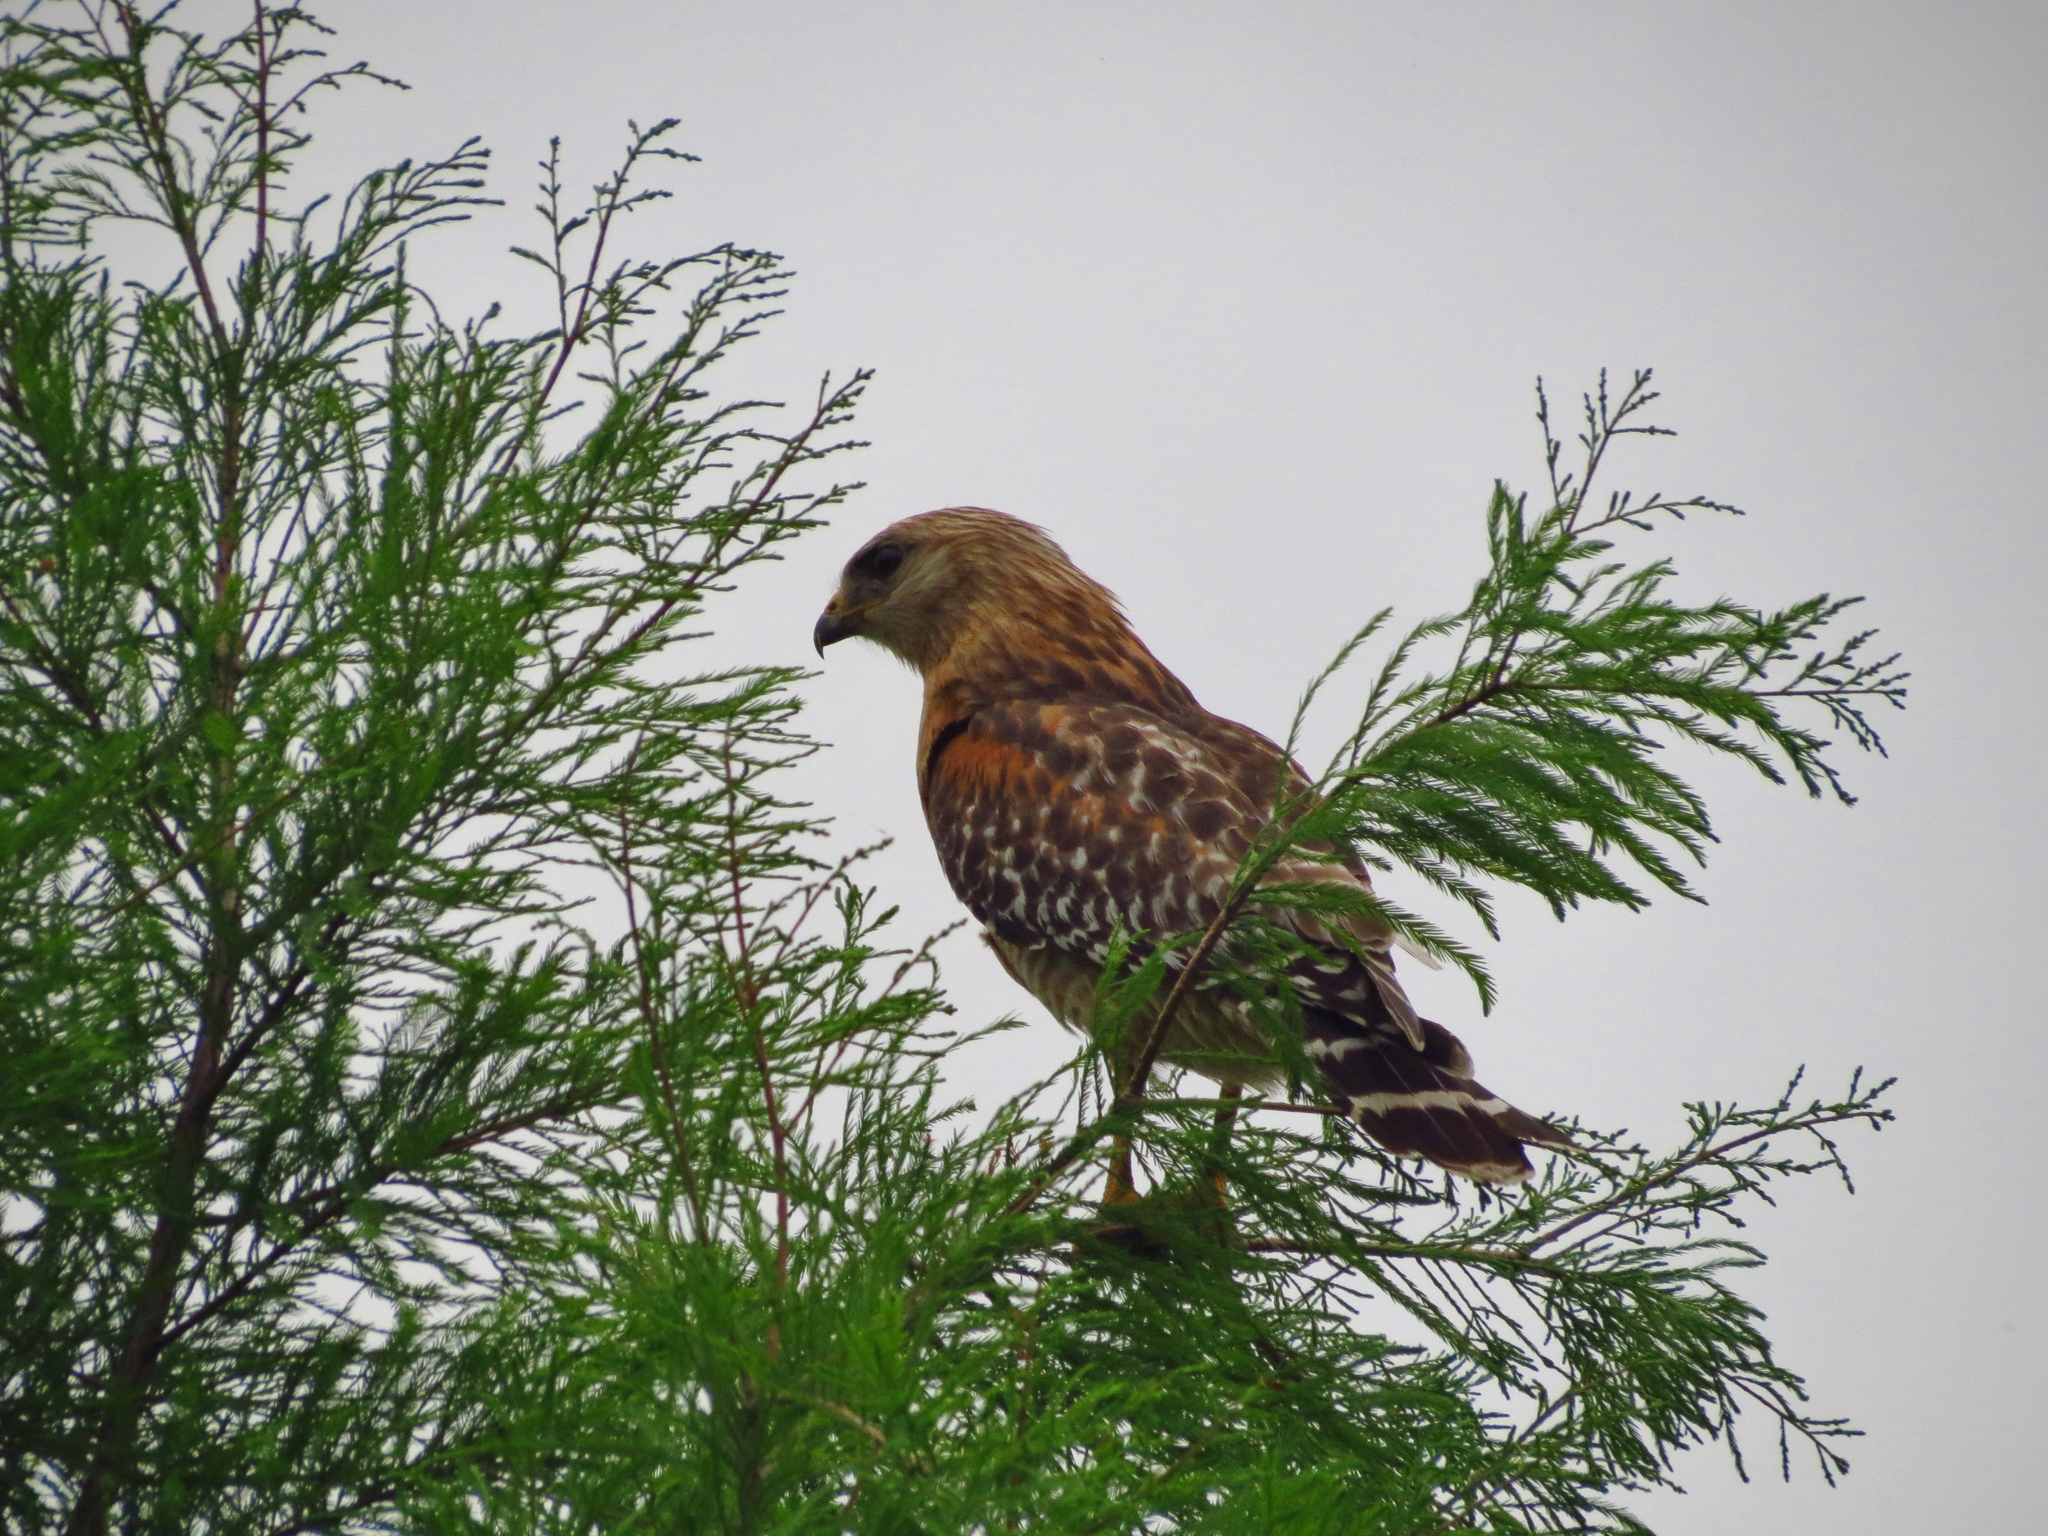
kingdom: Animalia
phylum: Chordata
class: Aves
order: Accipitriformes
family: Accipitridae
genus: Buteo
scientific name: Buteo lineatus
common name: Red-shouldered hawk
